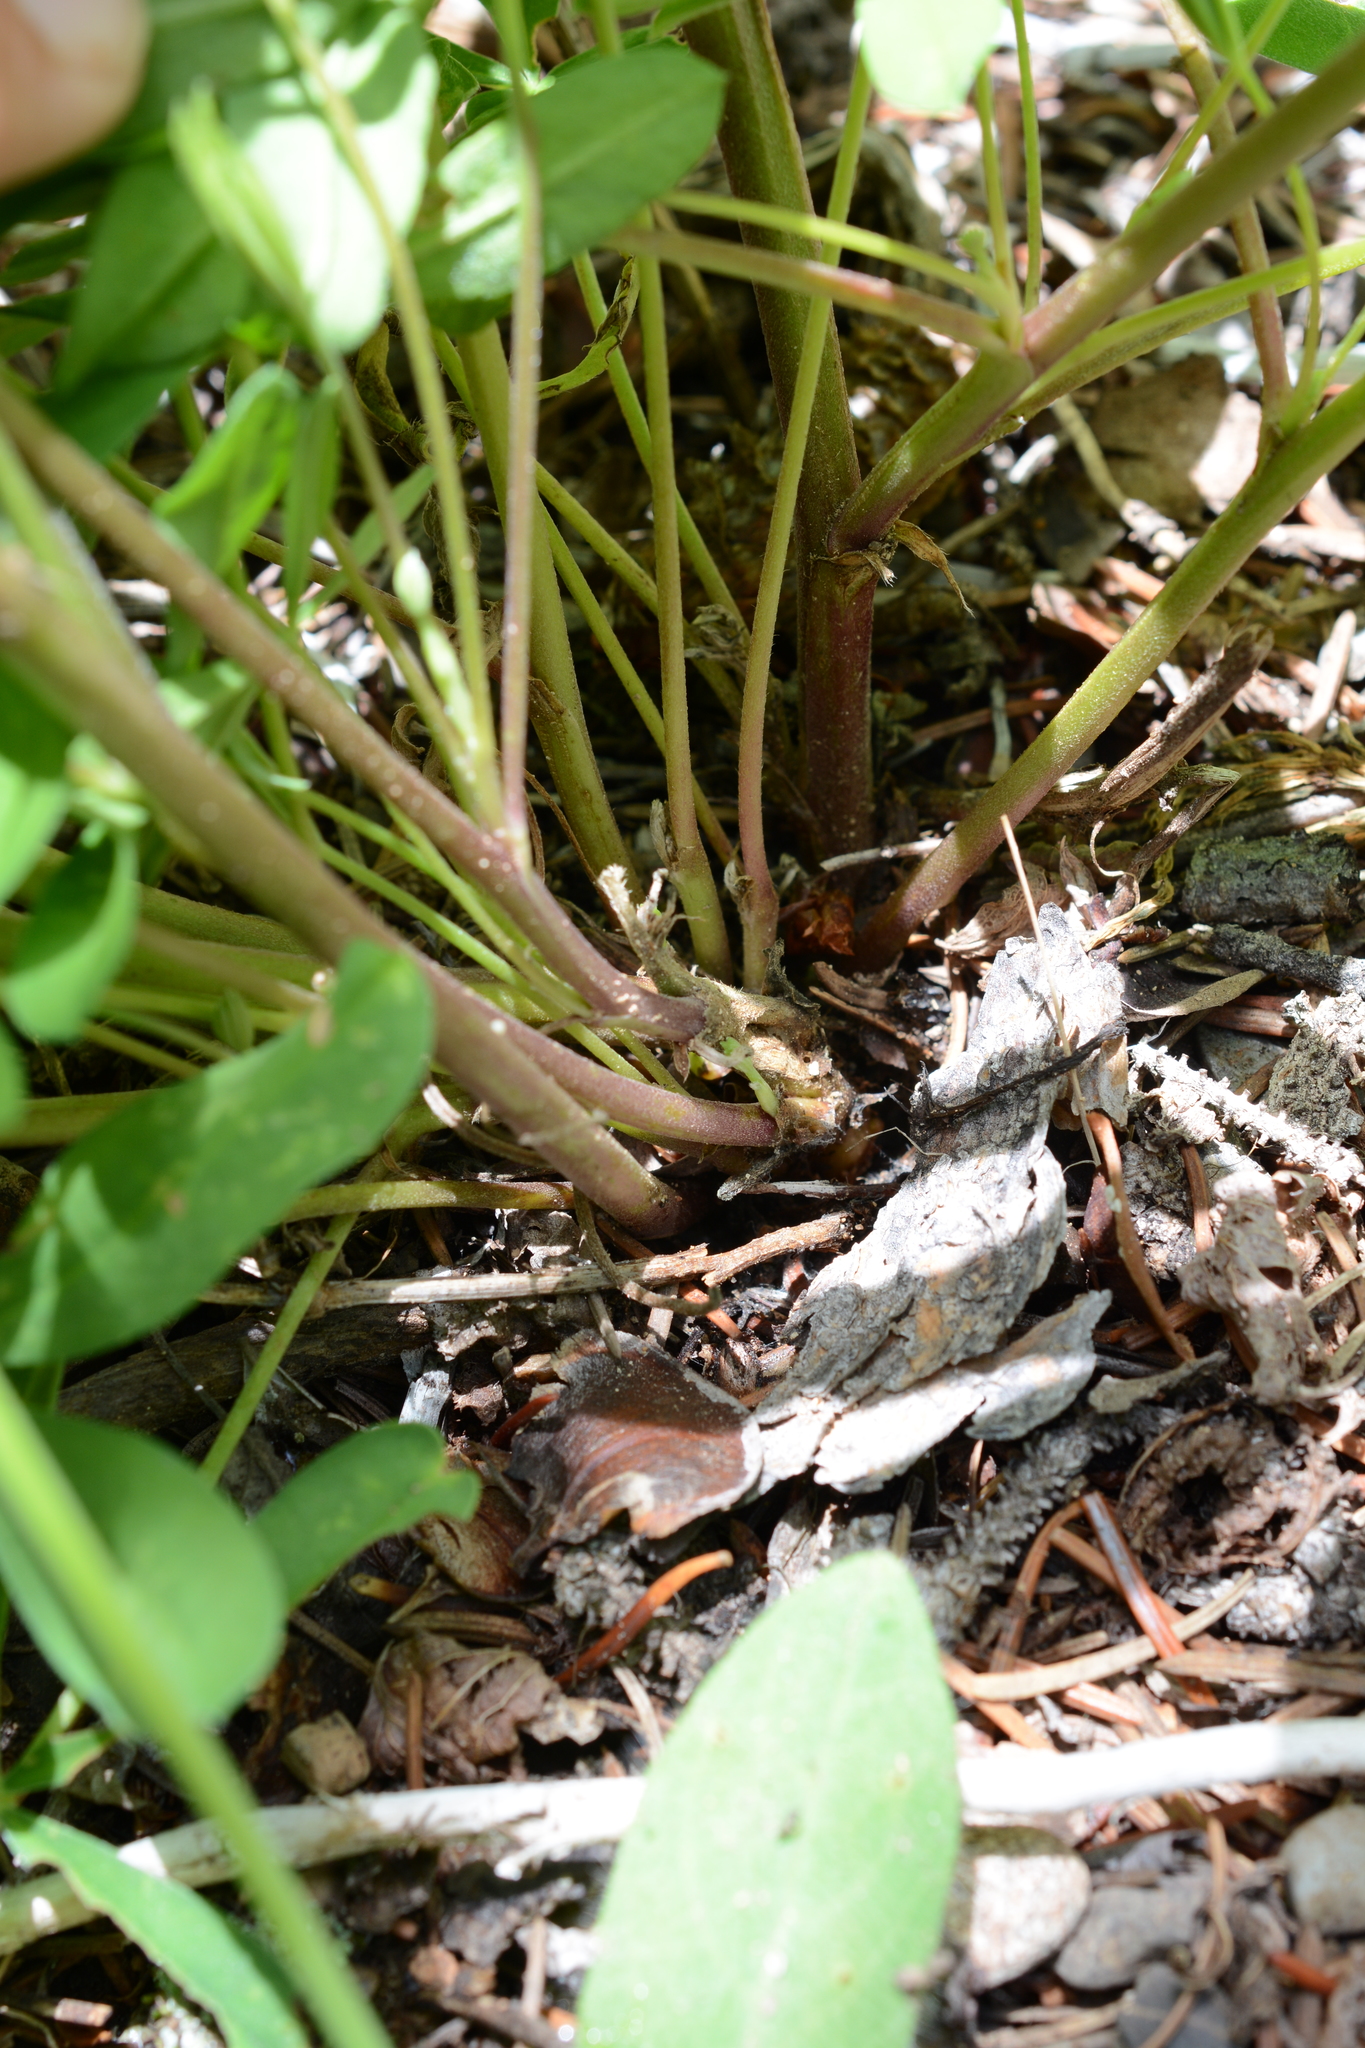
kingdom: Plantae
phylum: Tracheophyta
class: Magnoliopsida
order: Fabales
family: Fabaceae
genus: Lupinus
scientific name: Lupinus polyphyllus
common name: Garden lupin
